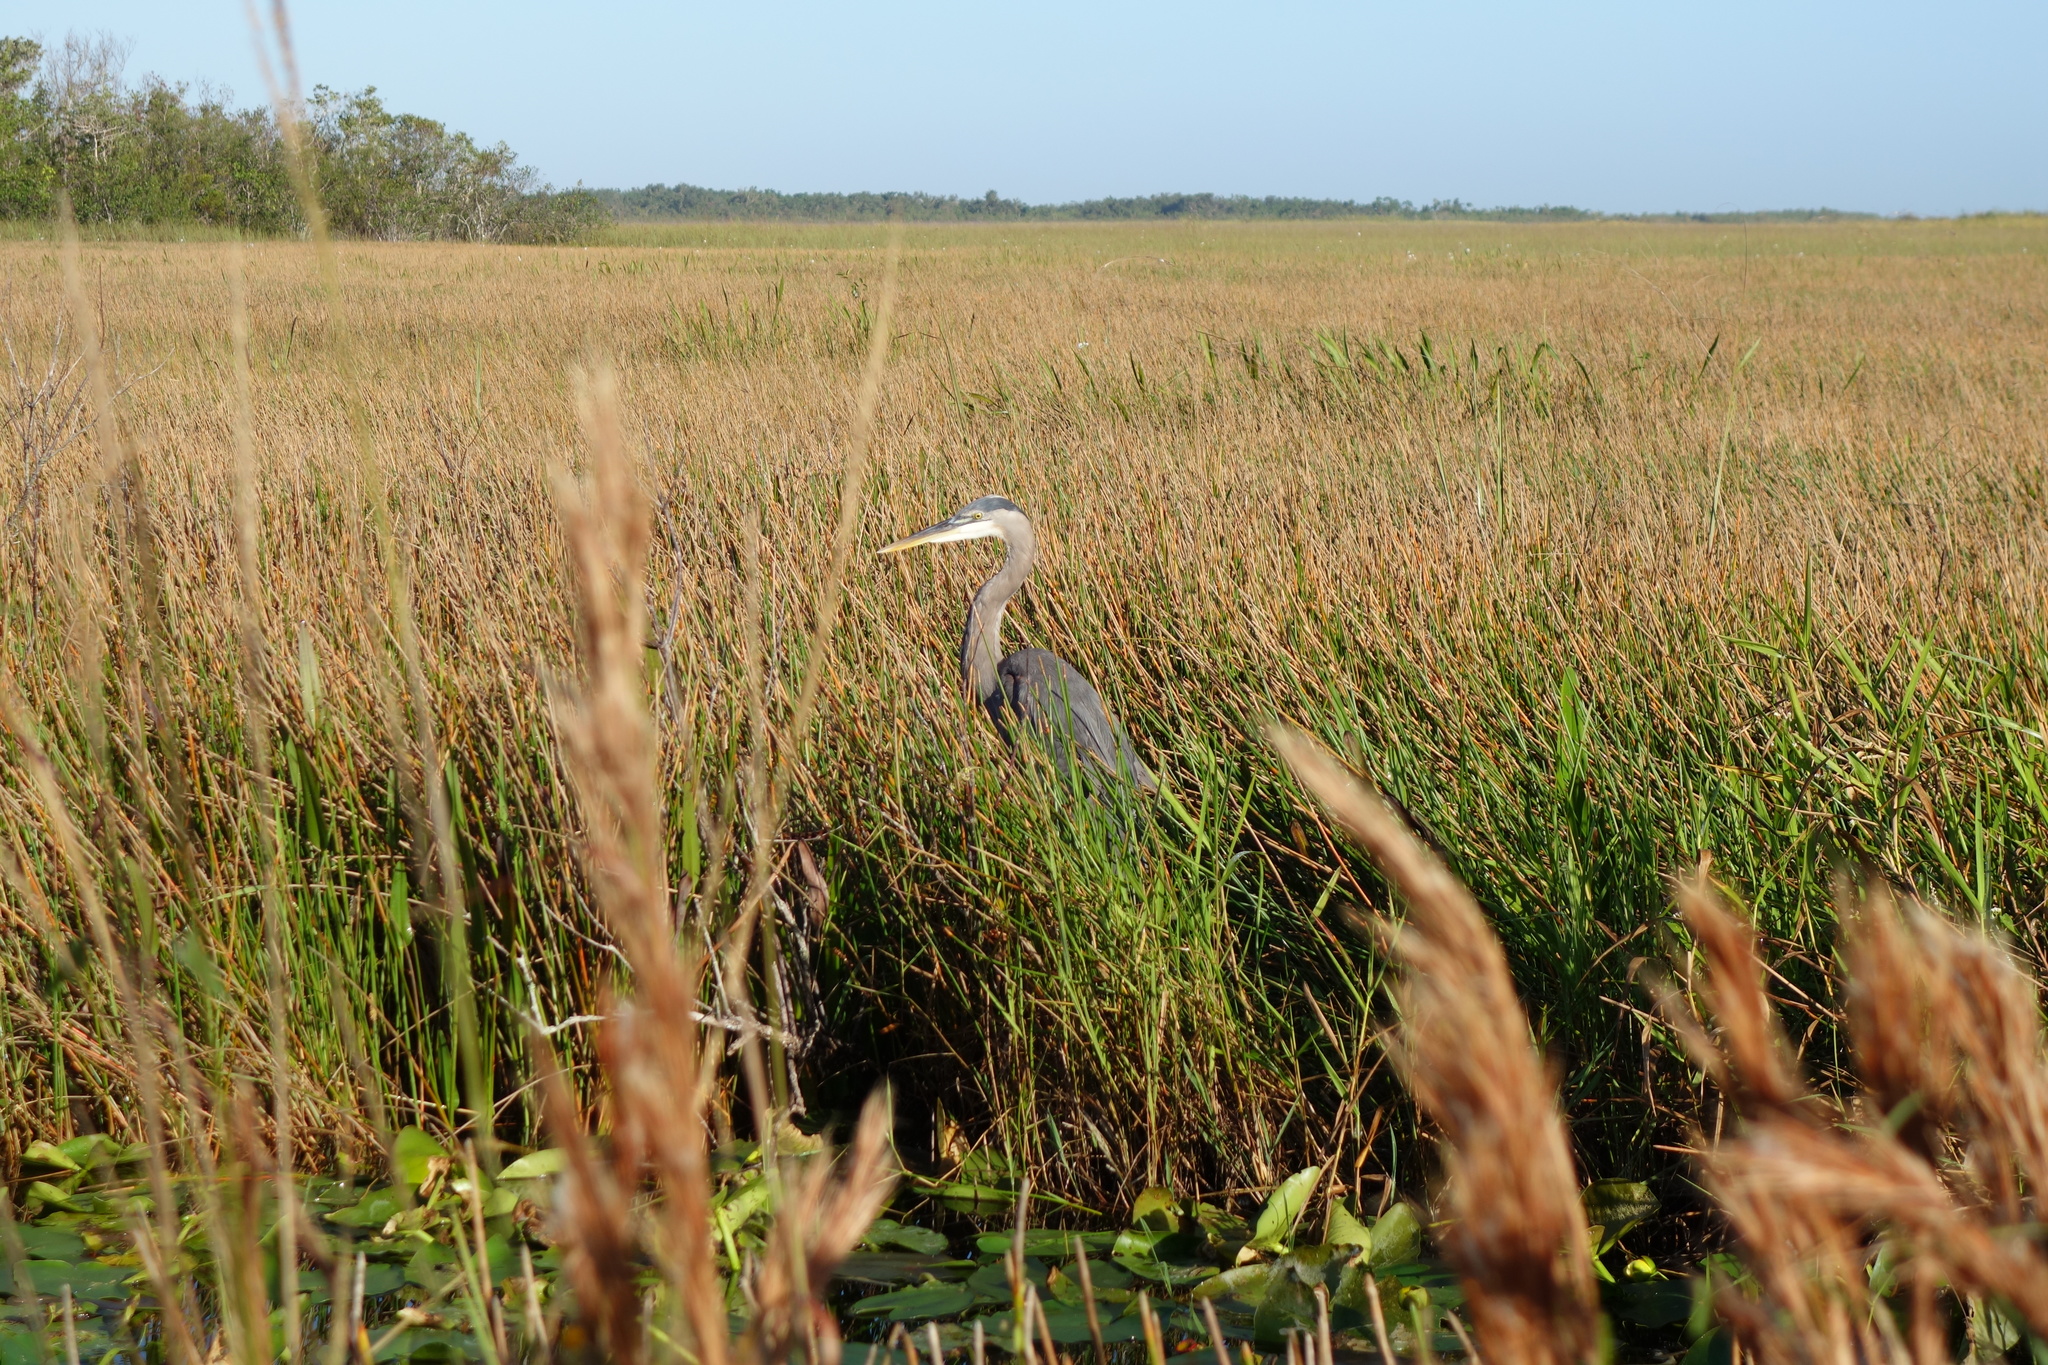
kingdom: Animalia
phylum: Chordata
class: Aves
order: Pelecaniformes
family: Ardeidae
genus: Ardea
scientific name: Ardea herodias
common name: Great blue heron
